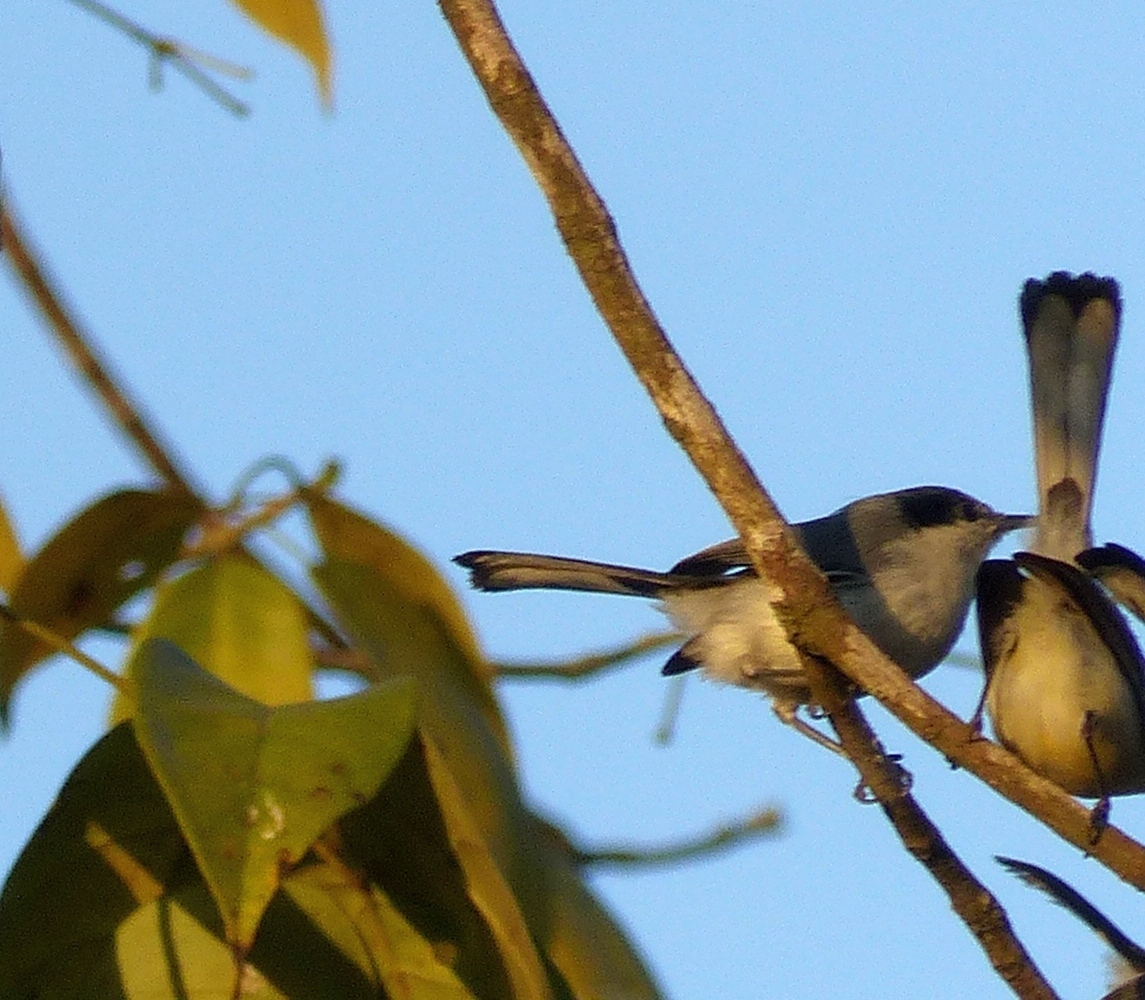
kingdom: Animalia
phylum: Chordata
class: Aves
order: Passeriformes
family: Polioptilidae
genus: Polioptila
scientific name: Polioptila plumbea
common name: Tropical gnatcatcher
